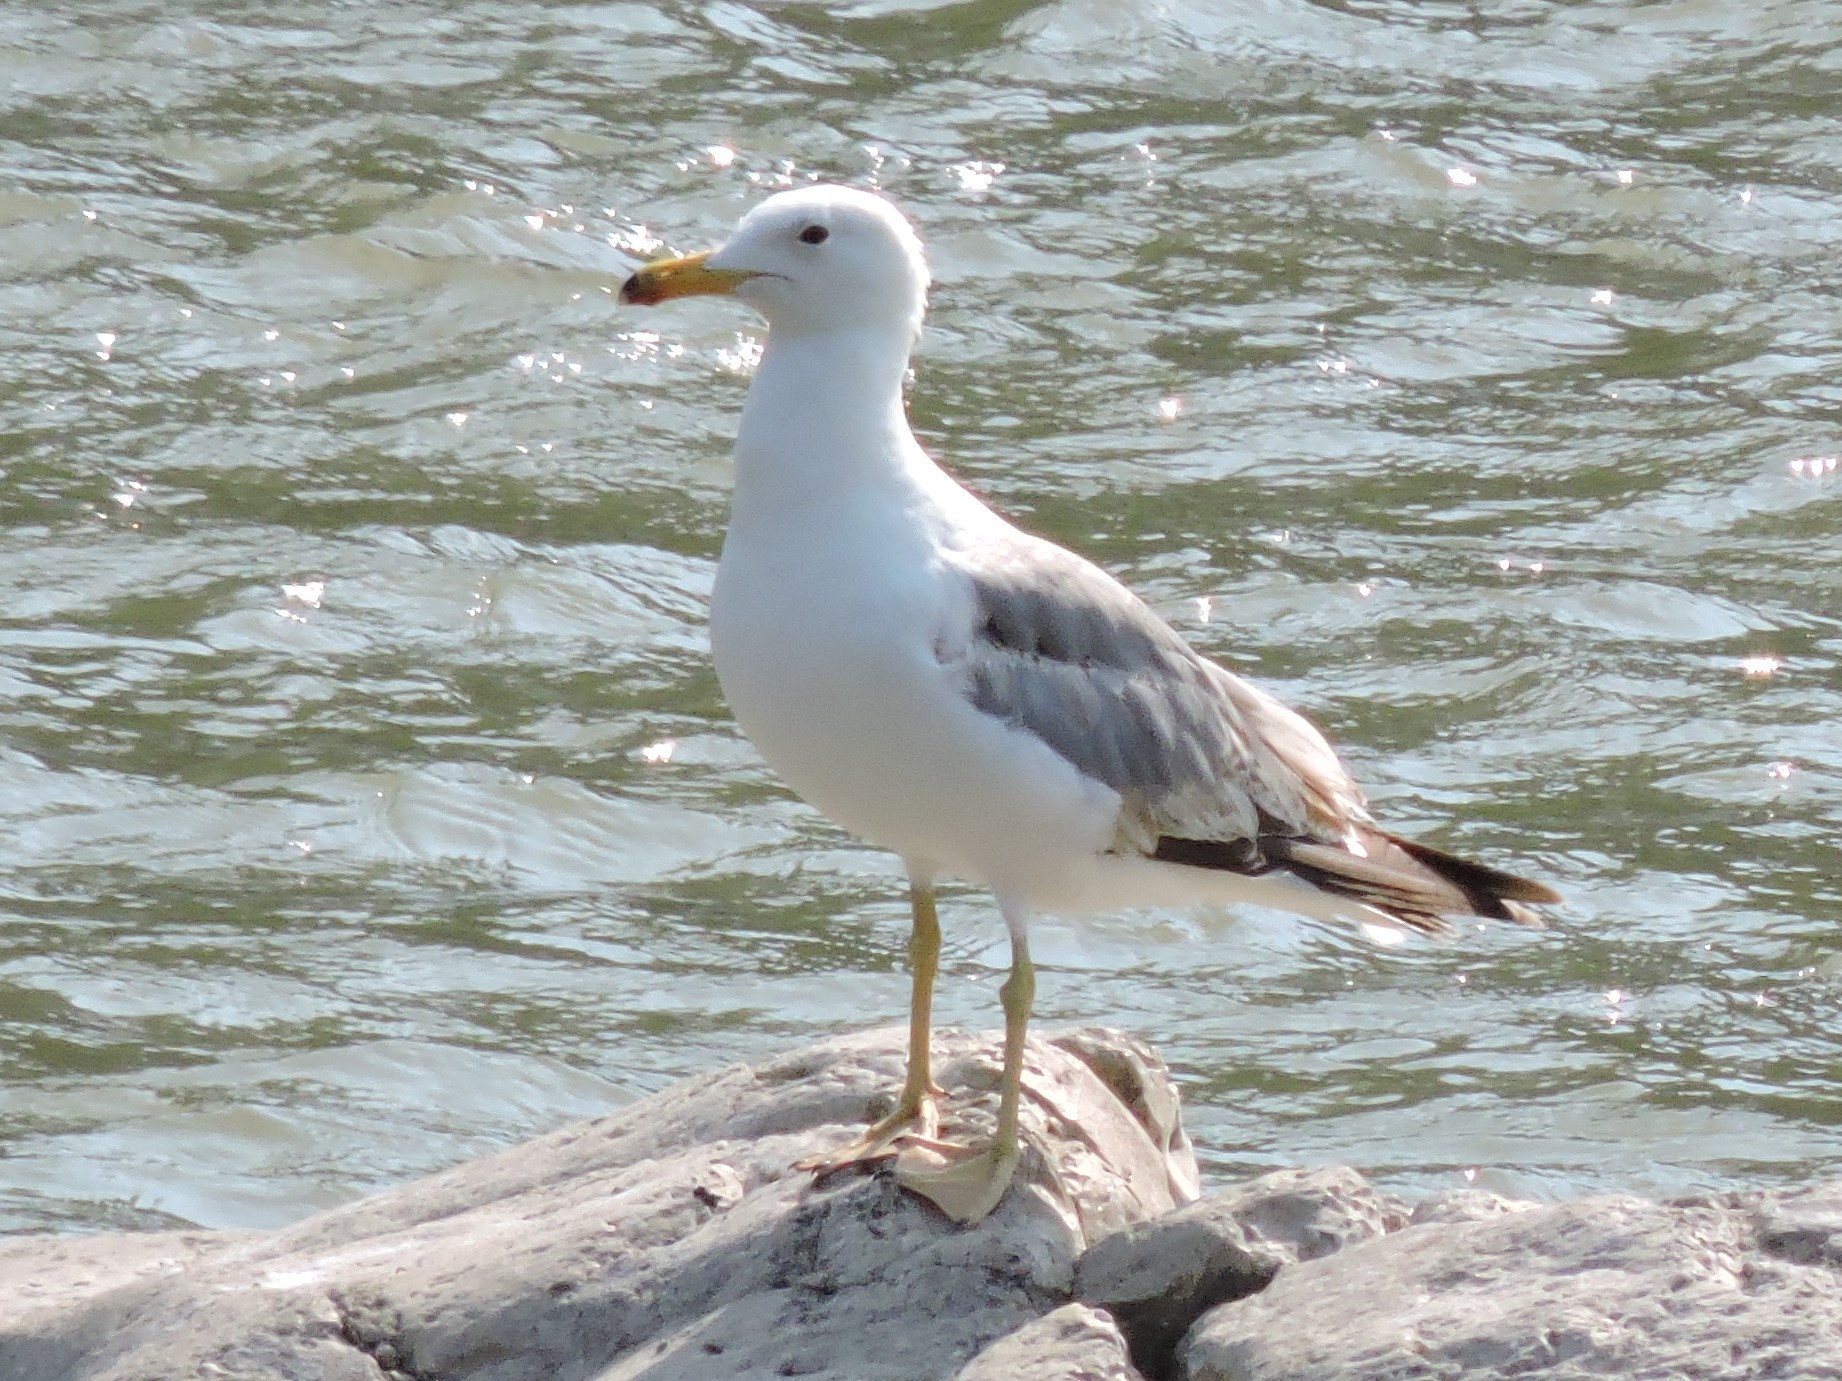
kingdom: Animalia
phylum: Chordata
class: Aves
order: Charadriiformes
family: Laridae
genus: Larus
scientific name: Larus armenicus
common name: Armenian gull
